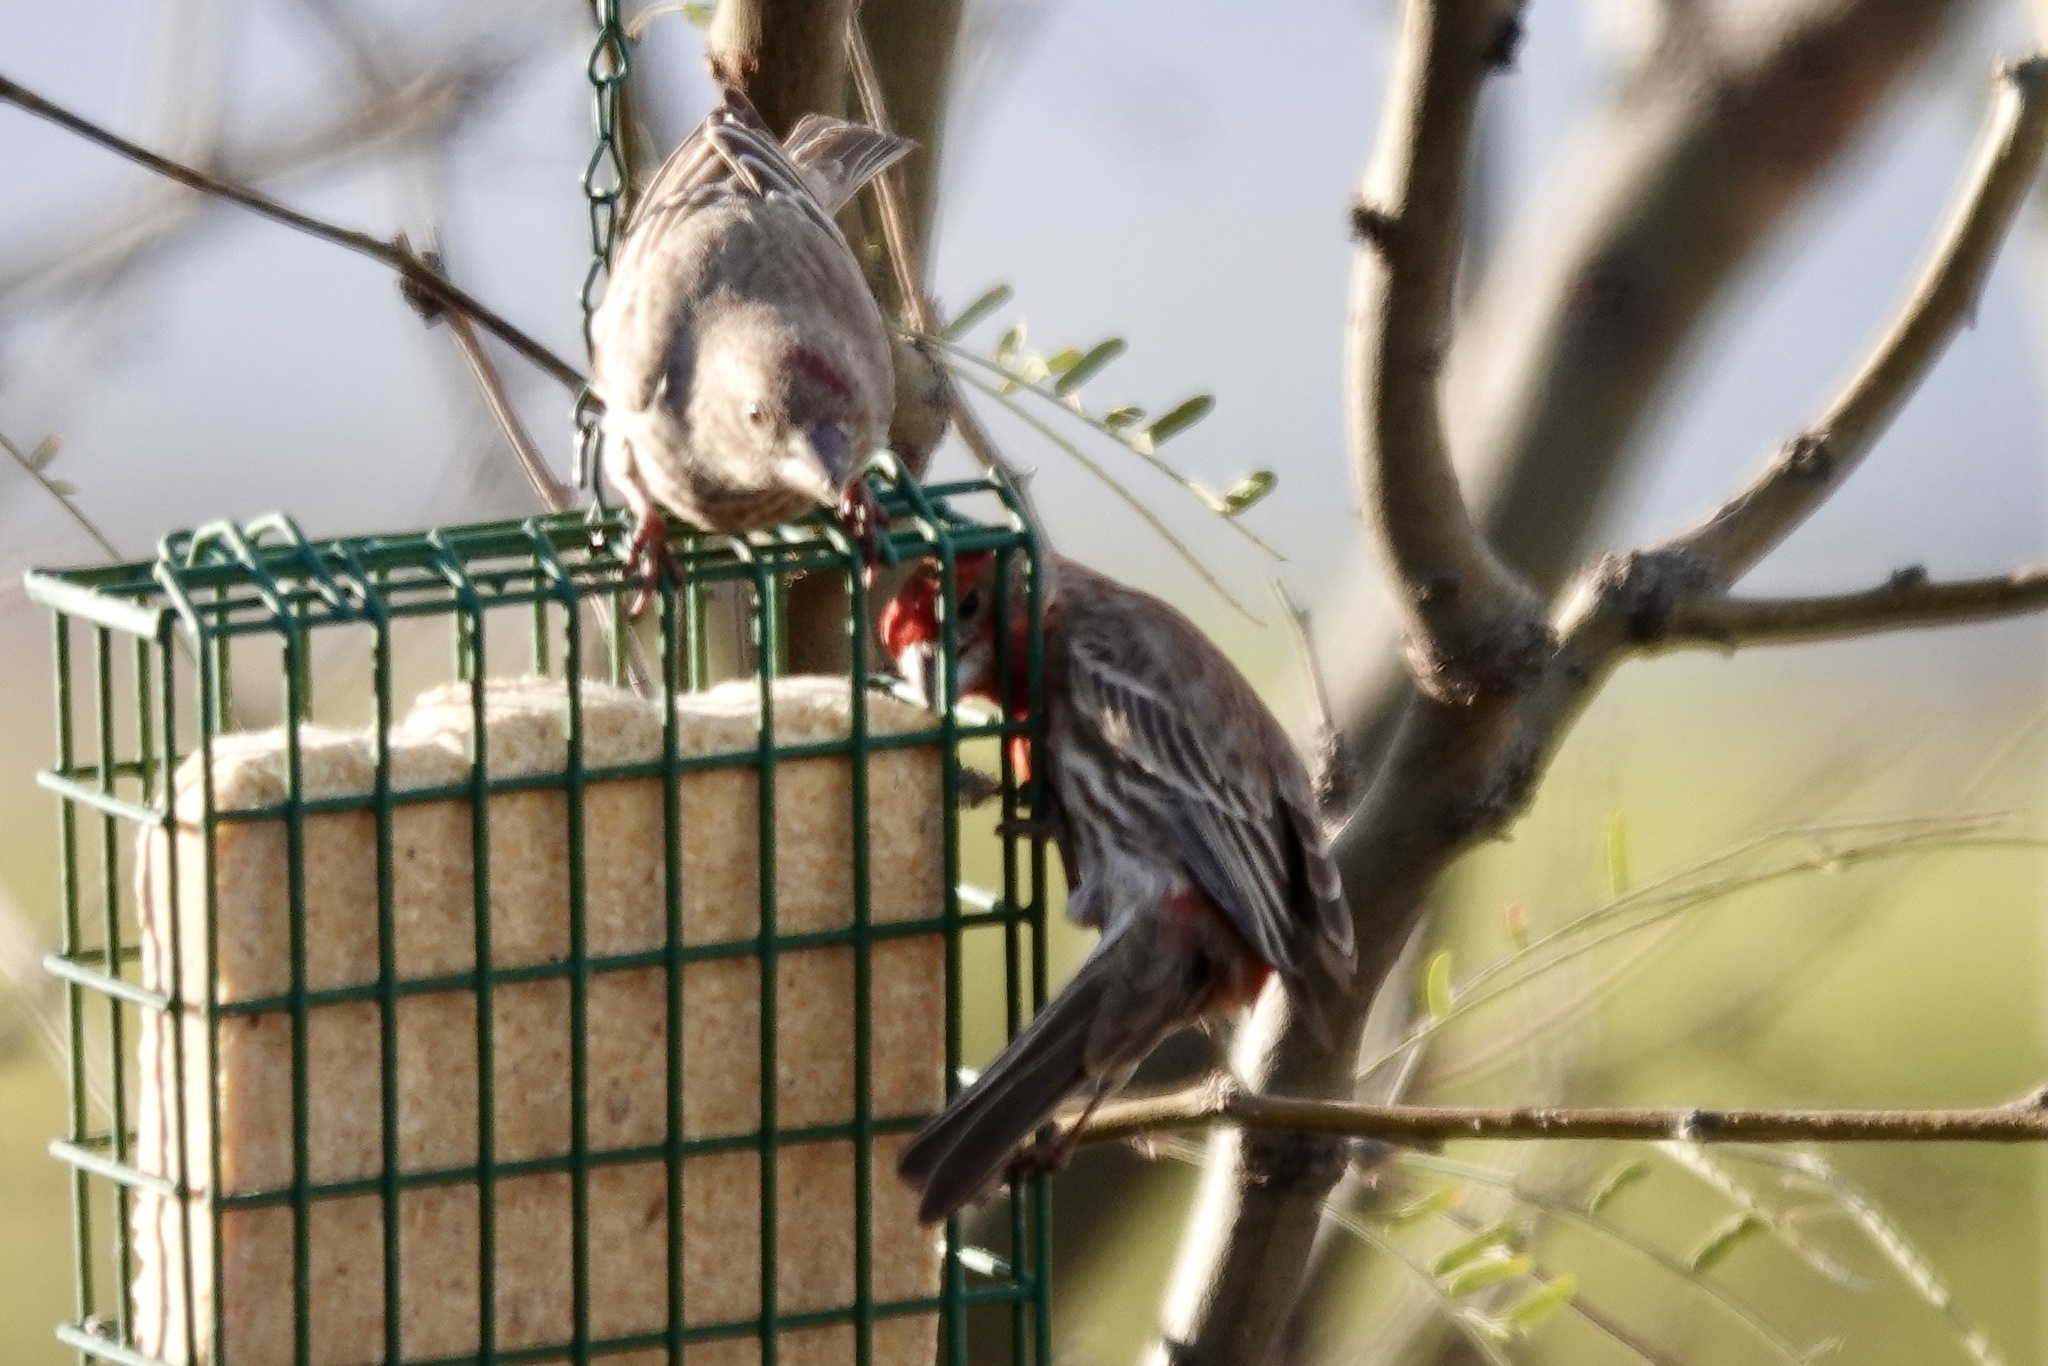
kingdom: Animalia
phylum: Chordata
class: Aves
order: Passeriformes
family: Fringillidae
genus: Haemorhous
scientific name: Haemorhous mexicanus
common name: House finch
